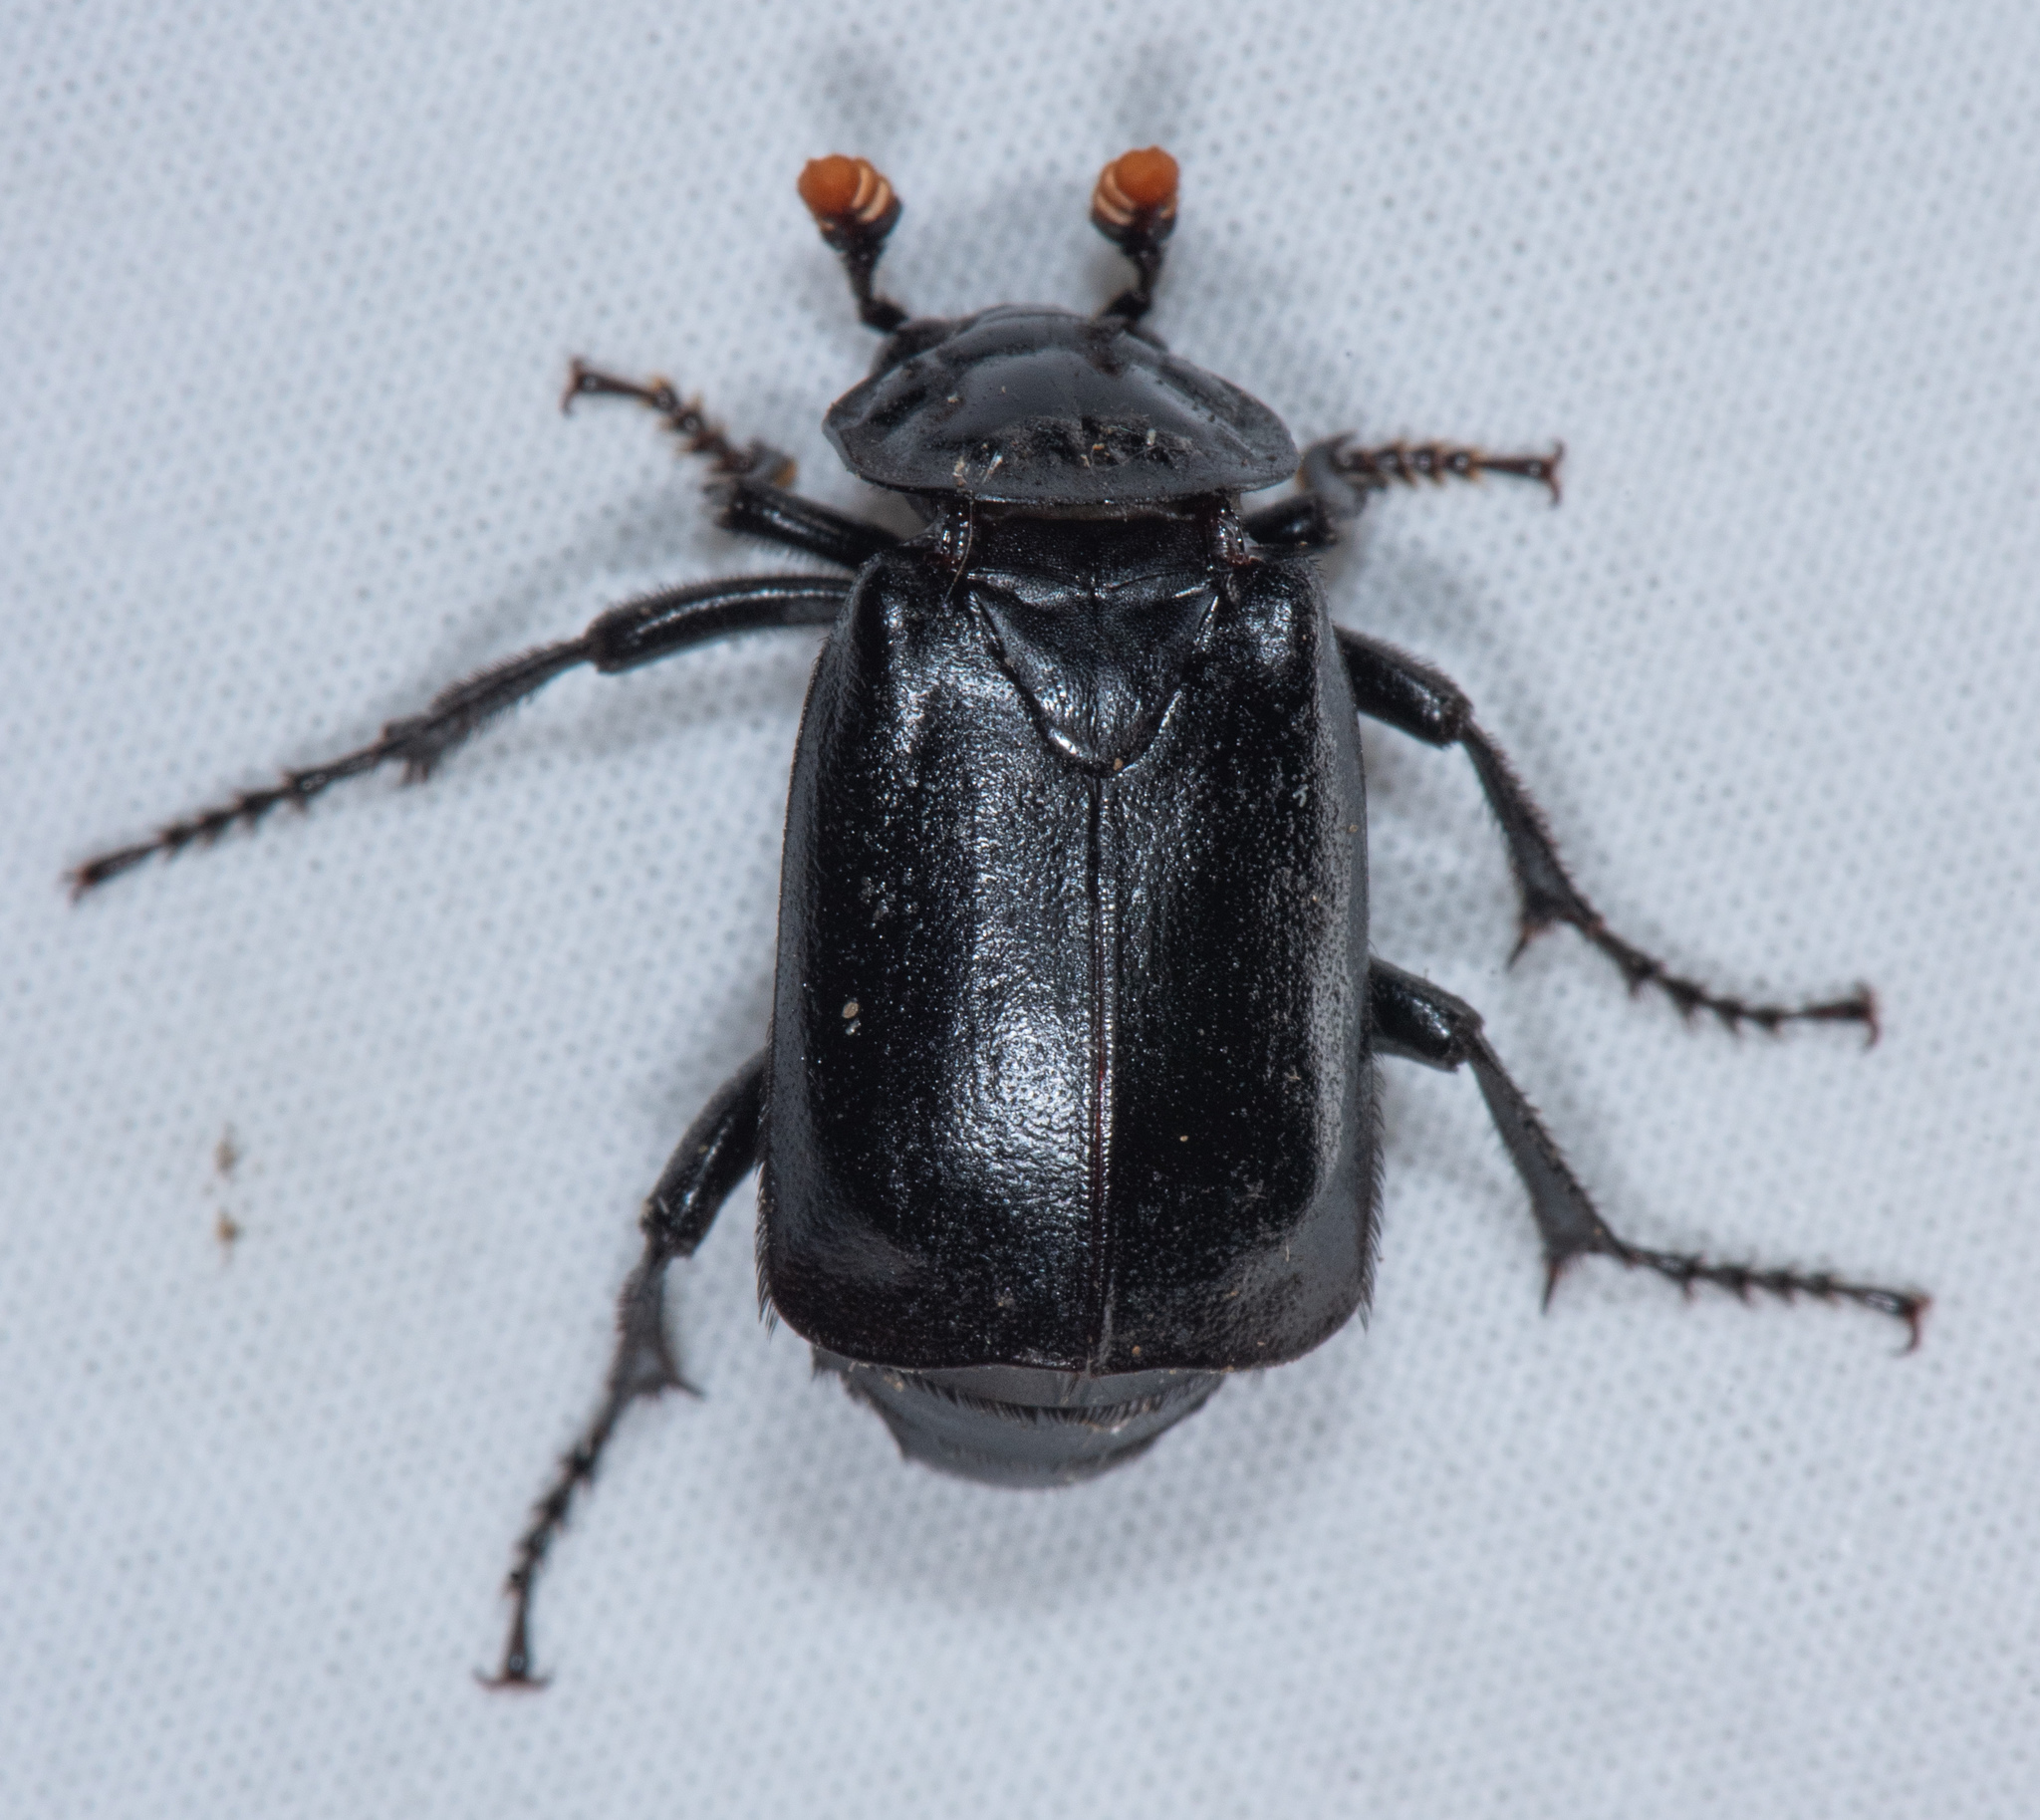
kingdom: Animalia
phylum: Arthropoda
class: Insecta
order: Coleoptera
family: Staphylinidae
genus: Nicrophorus
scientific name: Nicrophorus nigrita
